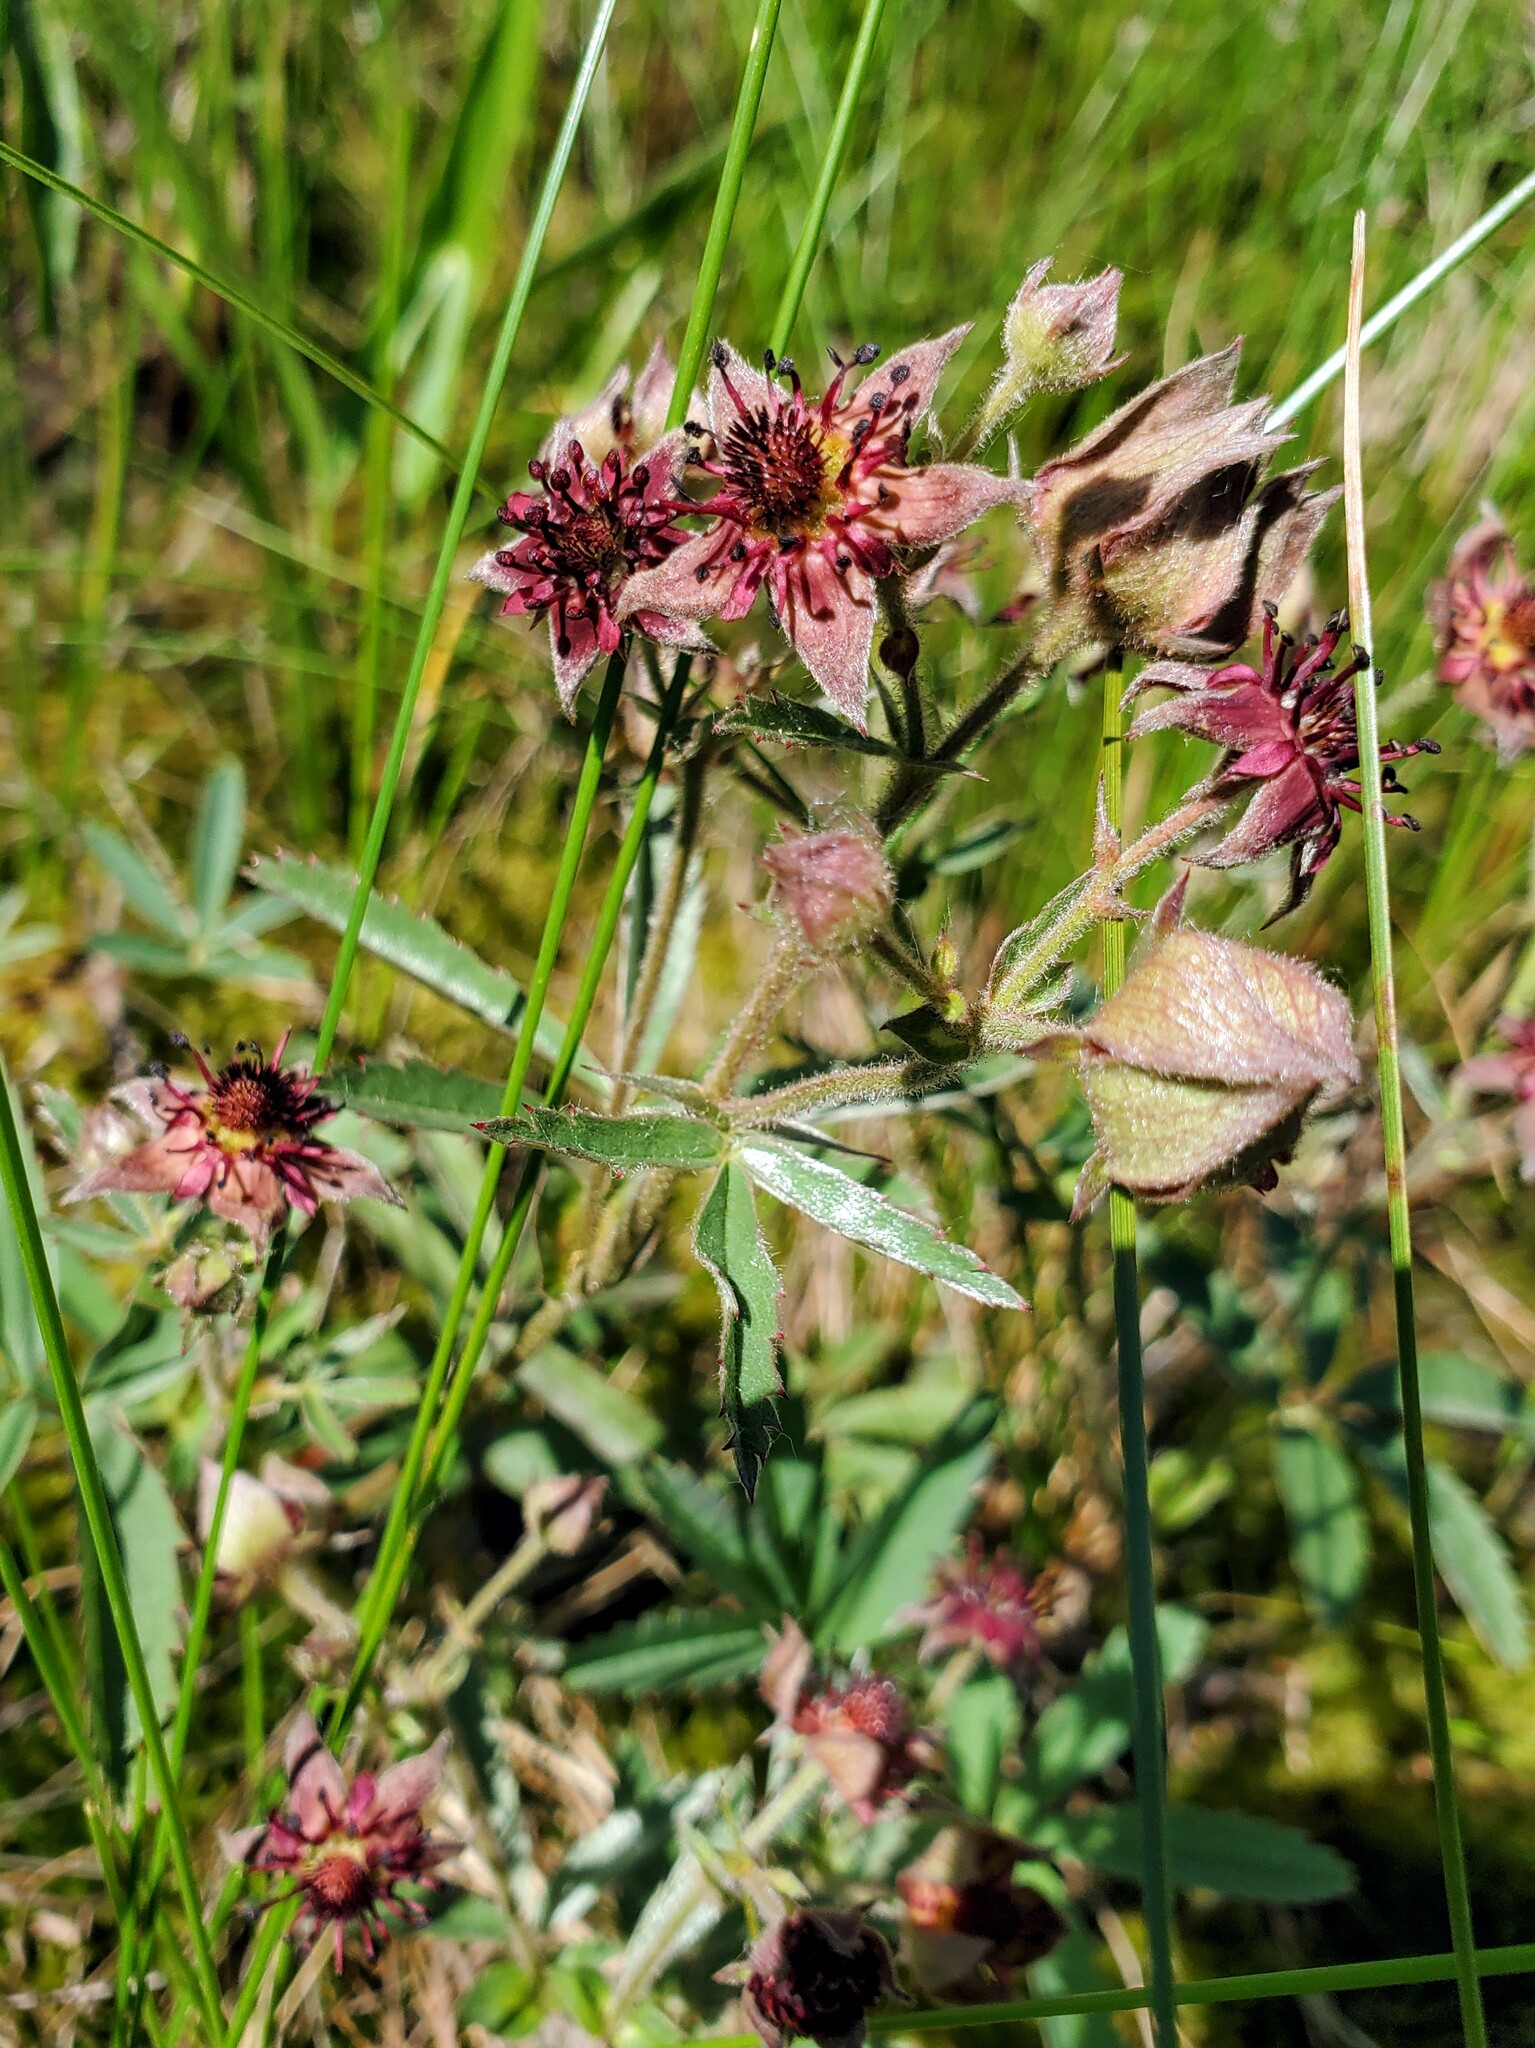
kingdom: Plantae
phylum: Tracheophyta
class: Magnoliopsida
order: Rosales
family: Rosaceae
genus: Comarum
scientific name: Comarum palustre
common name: Marsh cinquefoil
